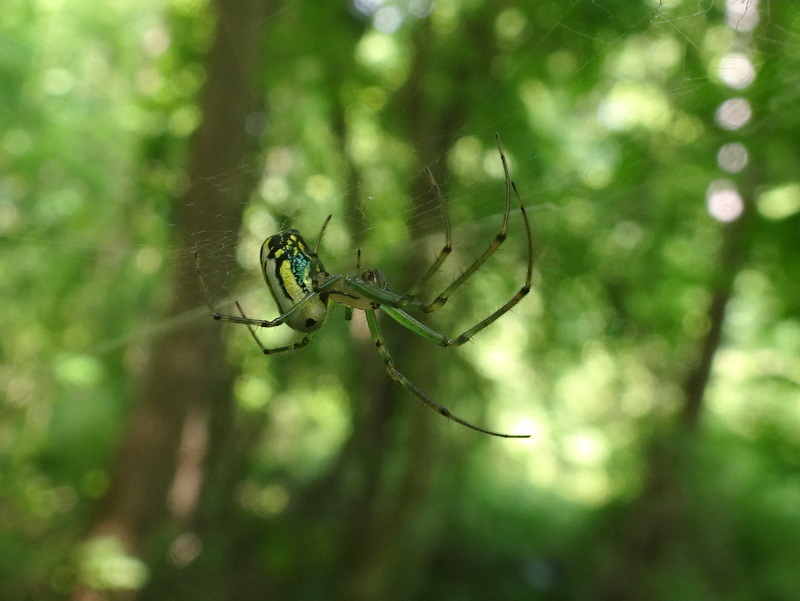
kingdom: Animalia
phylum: Arthropoda
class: Arachnida
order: Araneae
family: Tetragnathidae
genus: Leucauge
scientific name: Leucauge venusta
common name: Longjawed orb weavers
